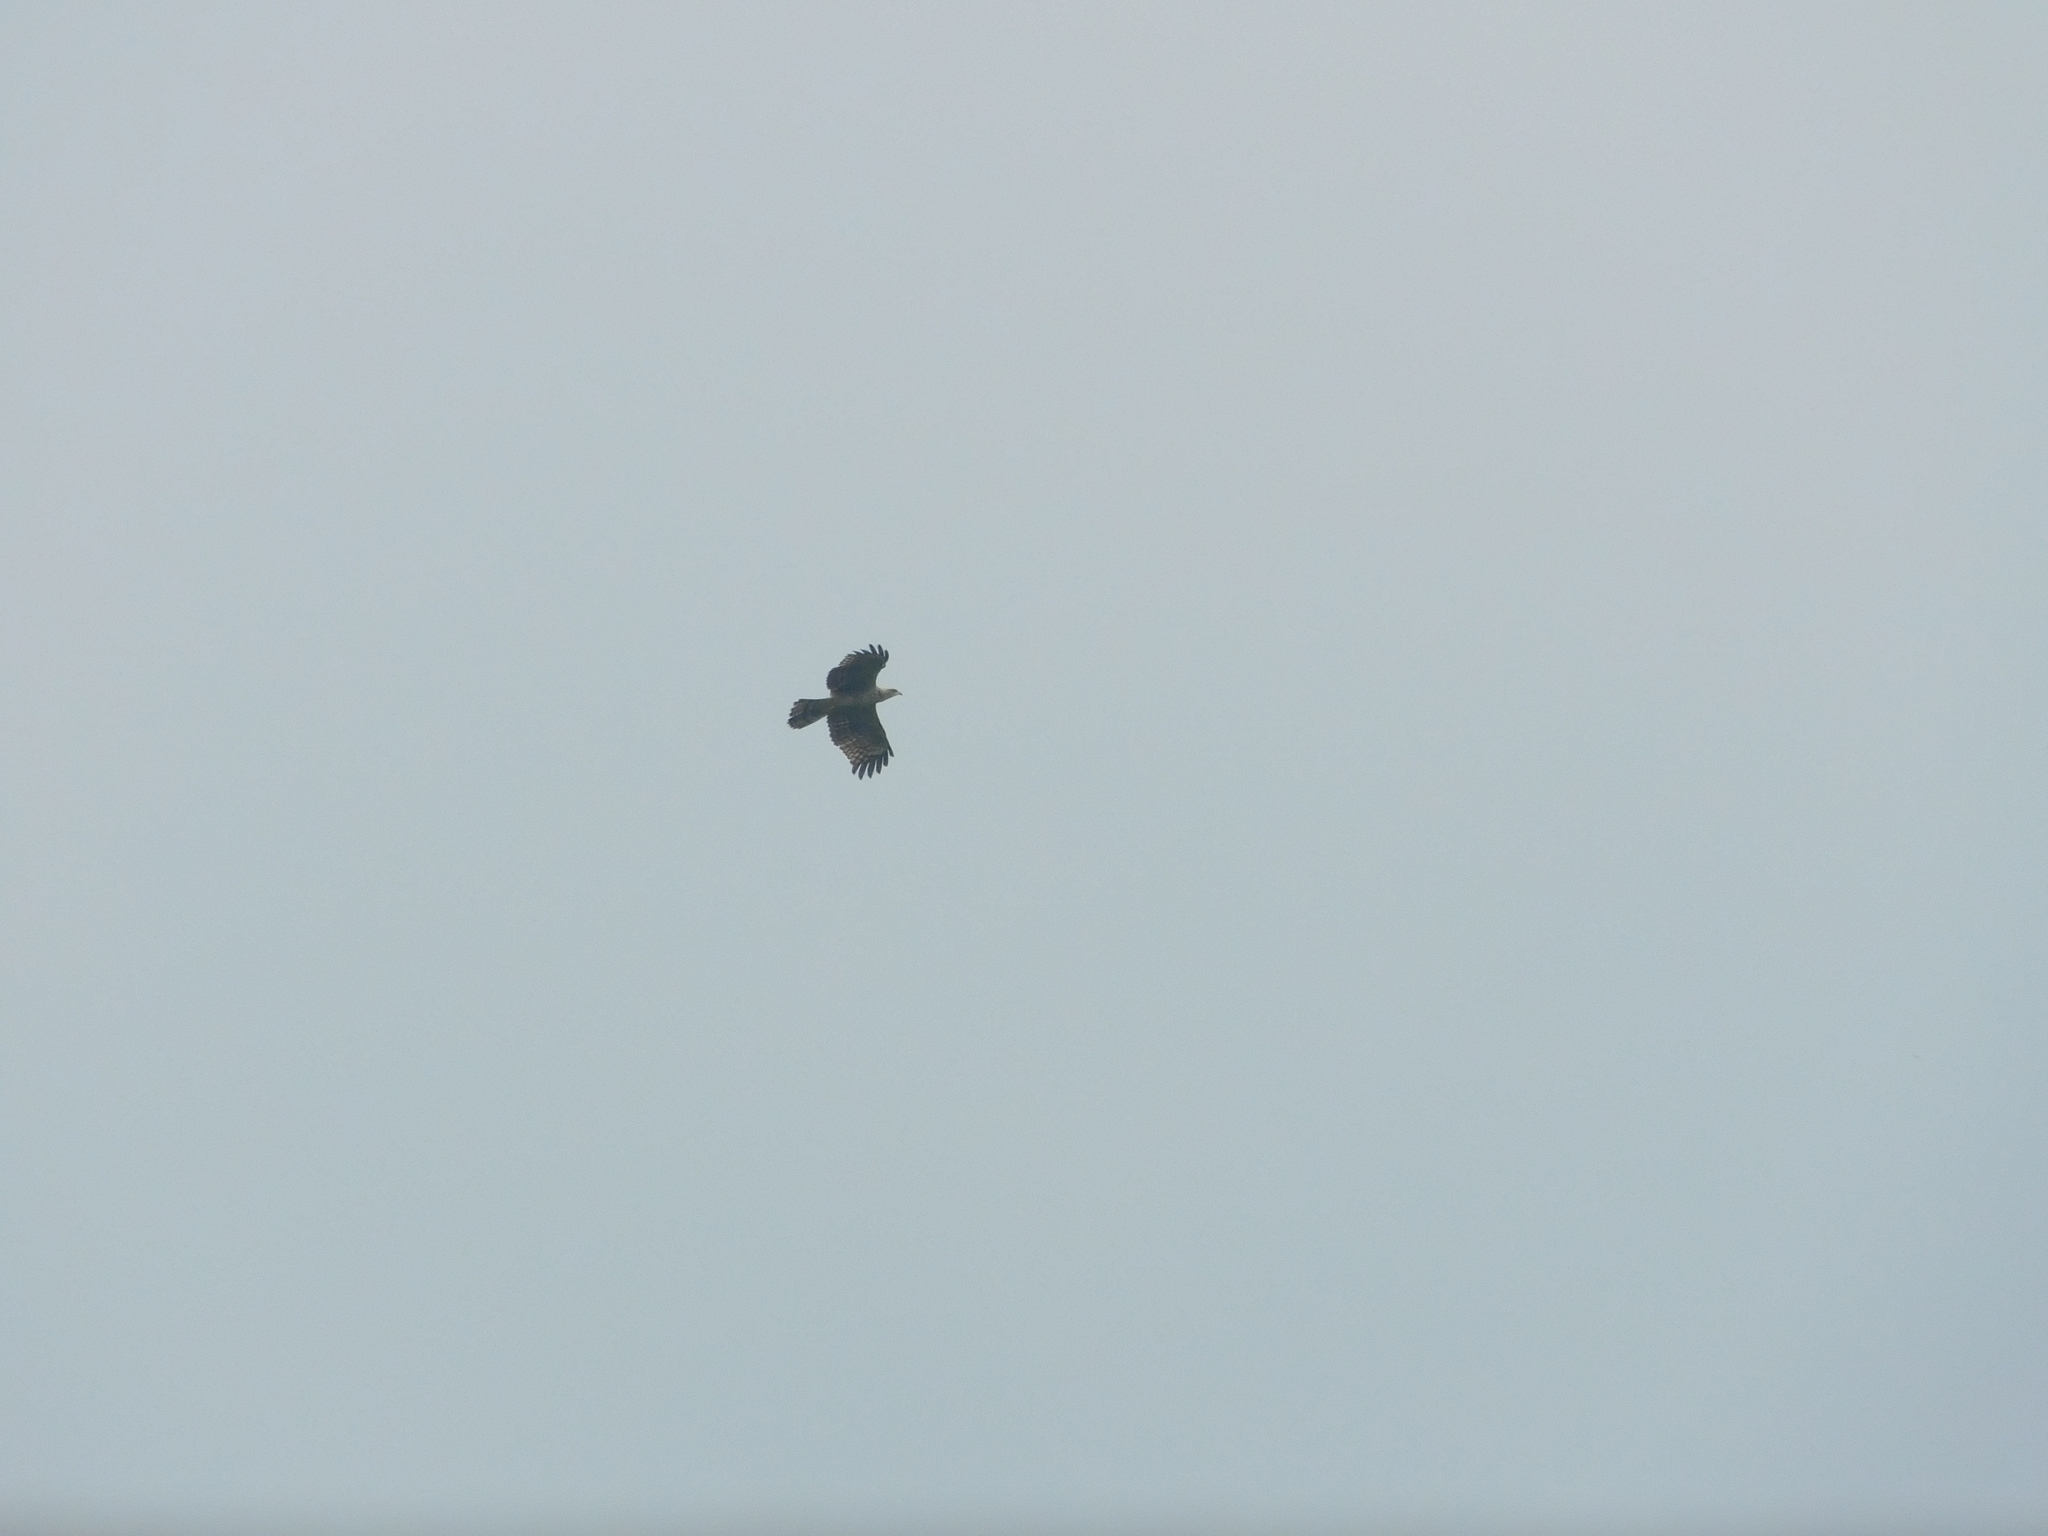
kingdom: Animalia
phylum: Chordata
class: Aves
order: Accipitriformes
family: Accipitridae
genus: Pernis
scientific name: Pernis ptilorhynchus
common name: Crested honey buzzard
